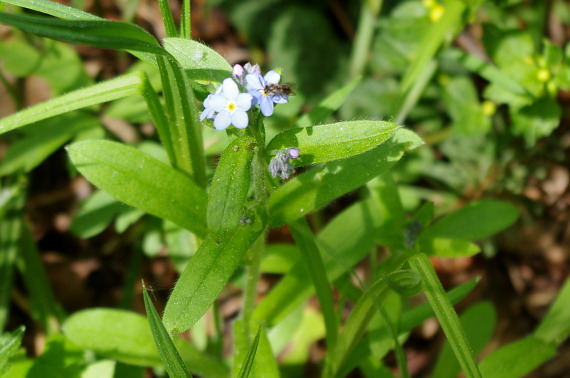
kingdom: Plantae
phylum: Tracheophyta
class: Magnoliopsida
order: Boraginales
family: Boraginaceae
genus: Myosotis
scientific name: Myosotis sylvatica
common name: Wood forget-me-not
